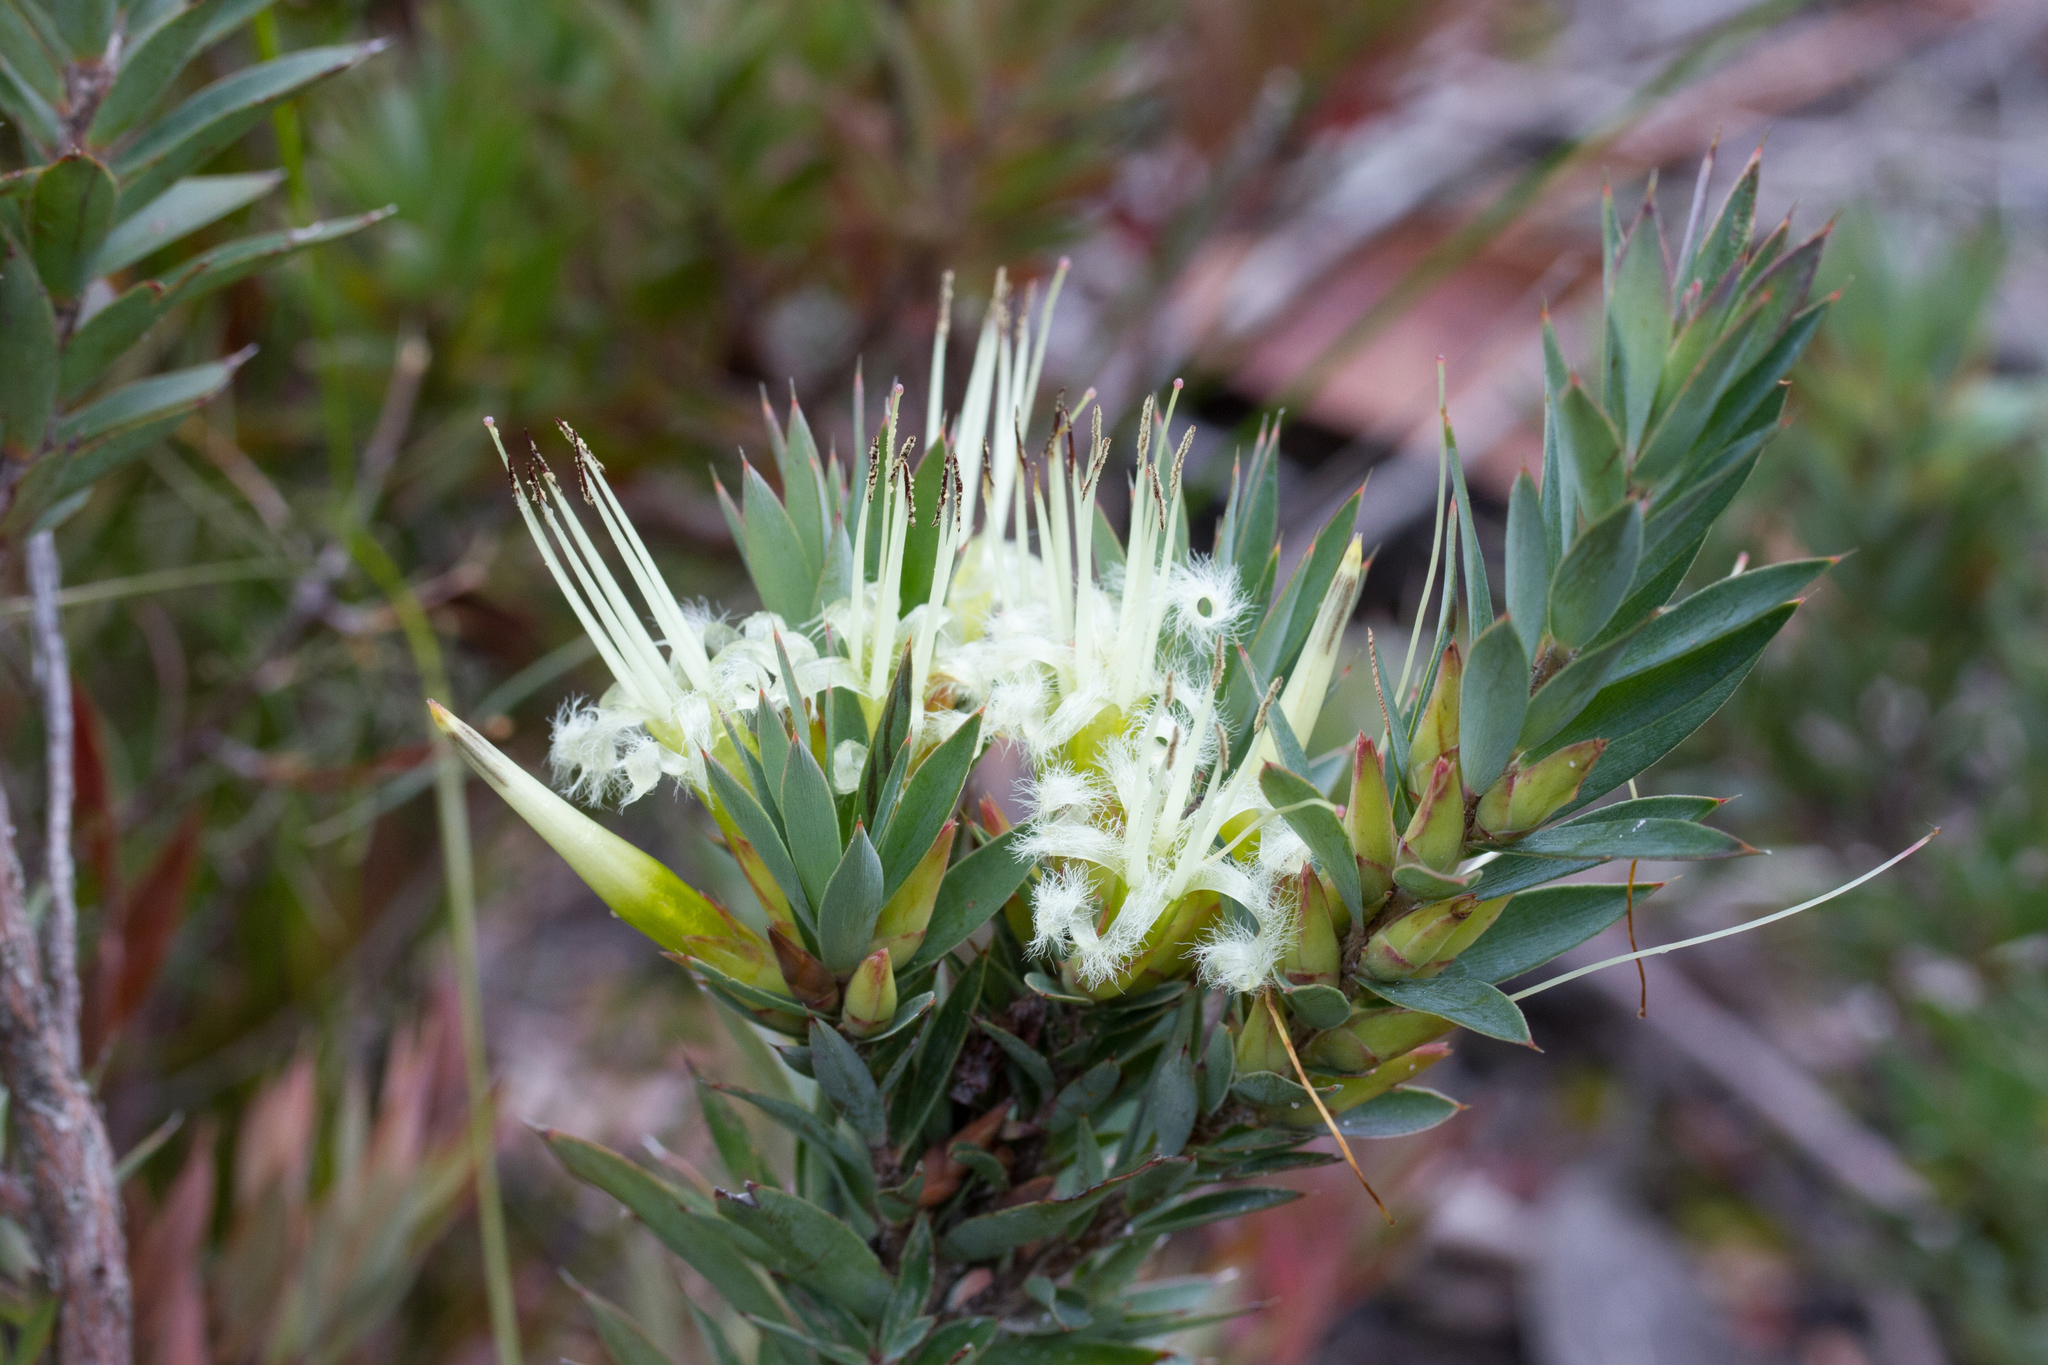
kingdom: Plantae
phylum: Tracheophyta
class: Magnoliopsida
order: Ericales
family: Ericaceae
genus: Styphelia
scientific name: Styphelia adscendens
